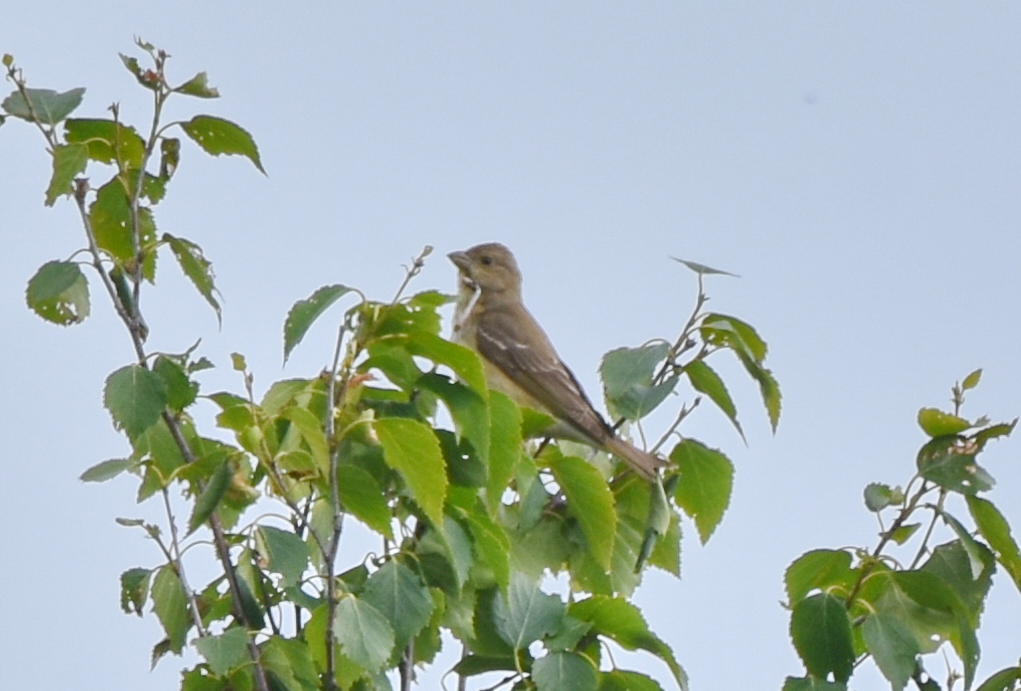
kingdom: Animalia
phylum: Chordata
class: Aves
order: Passeriformes
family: Fringillidae
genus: Carpodacus
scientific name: Carpodacus erythrinus
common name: Common rosefinch
